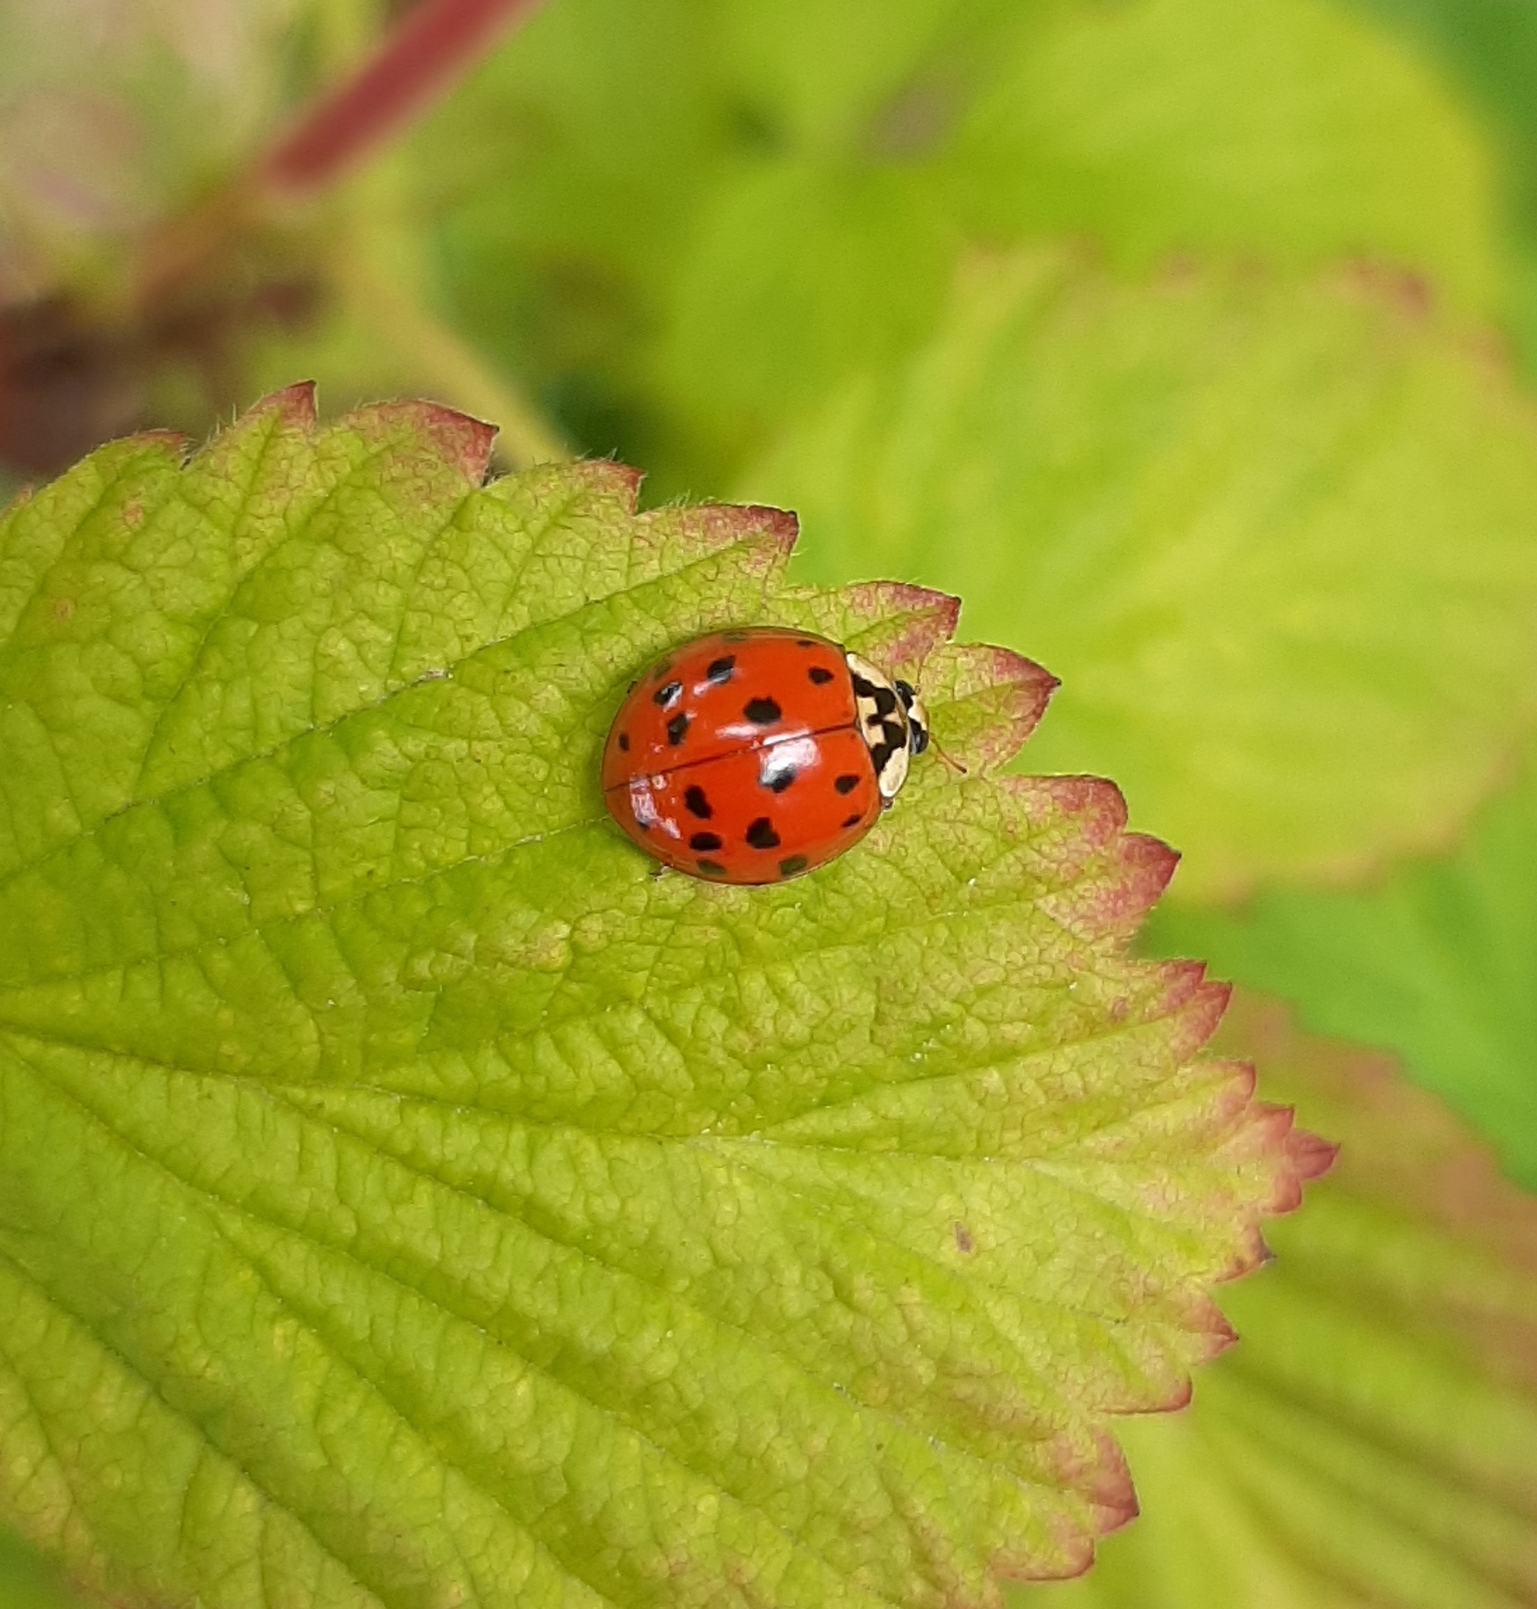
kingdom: Animalia
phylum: Arthropoda
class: Insecta
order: Coleoptera
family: Coccinellidae
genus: Harmonia
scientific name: Harmonia axyridis
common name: Harlequin ladybird
